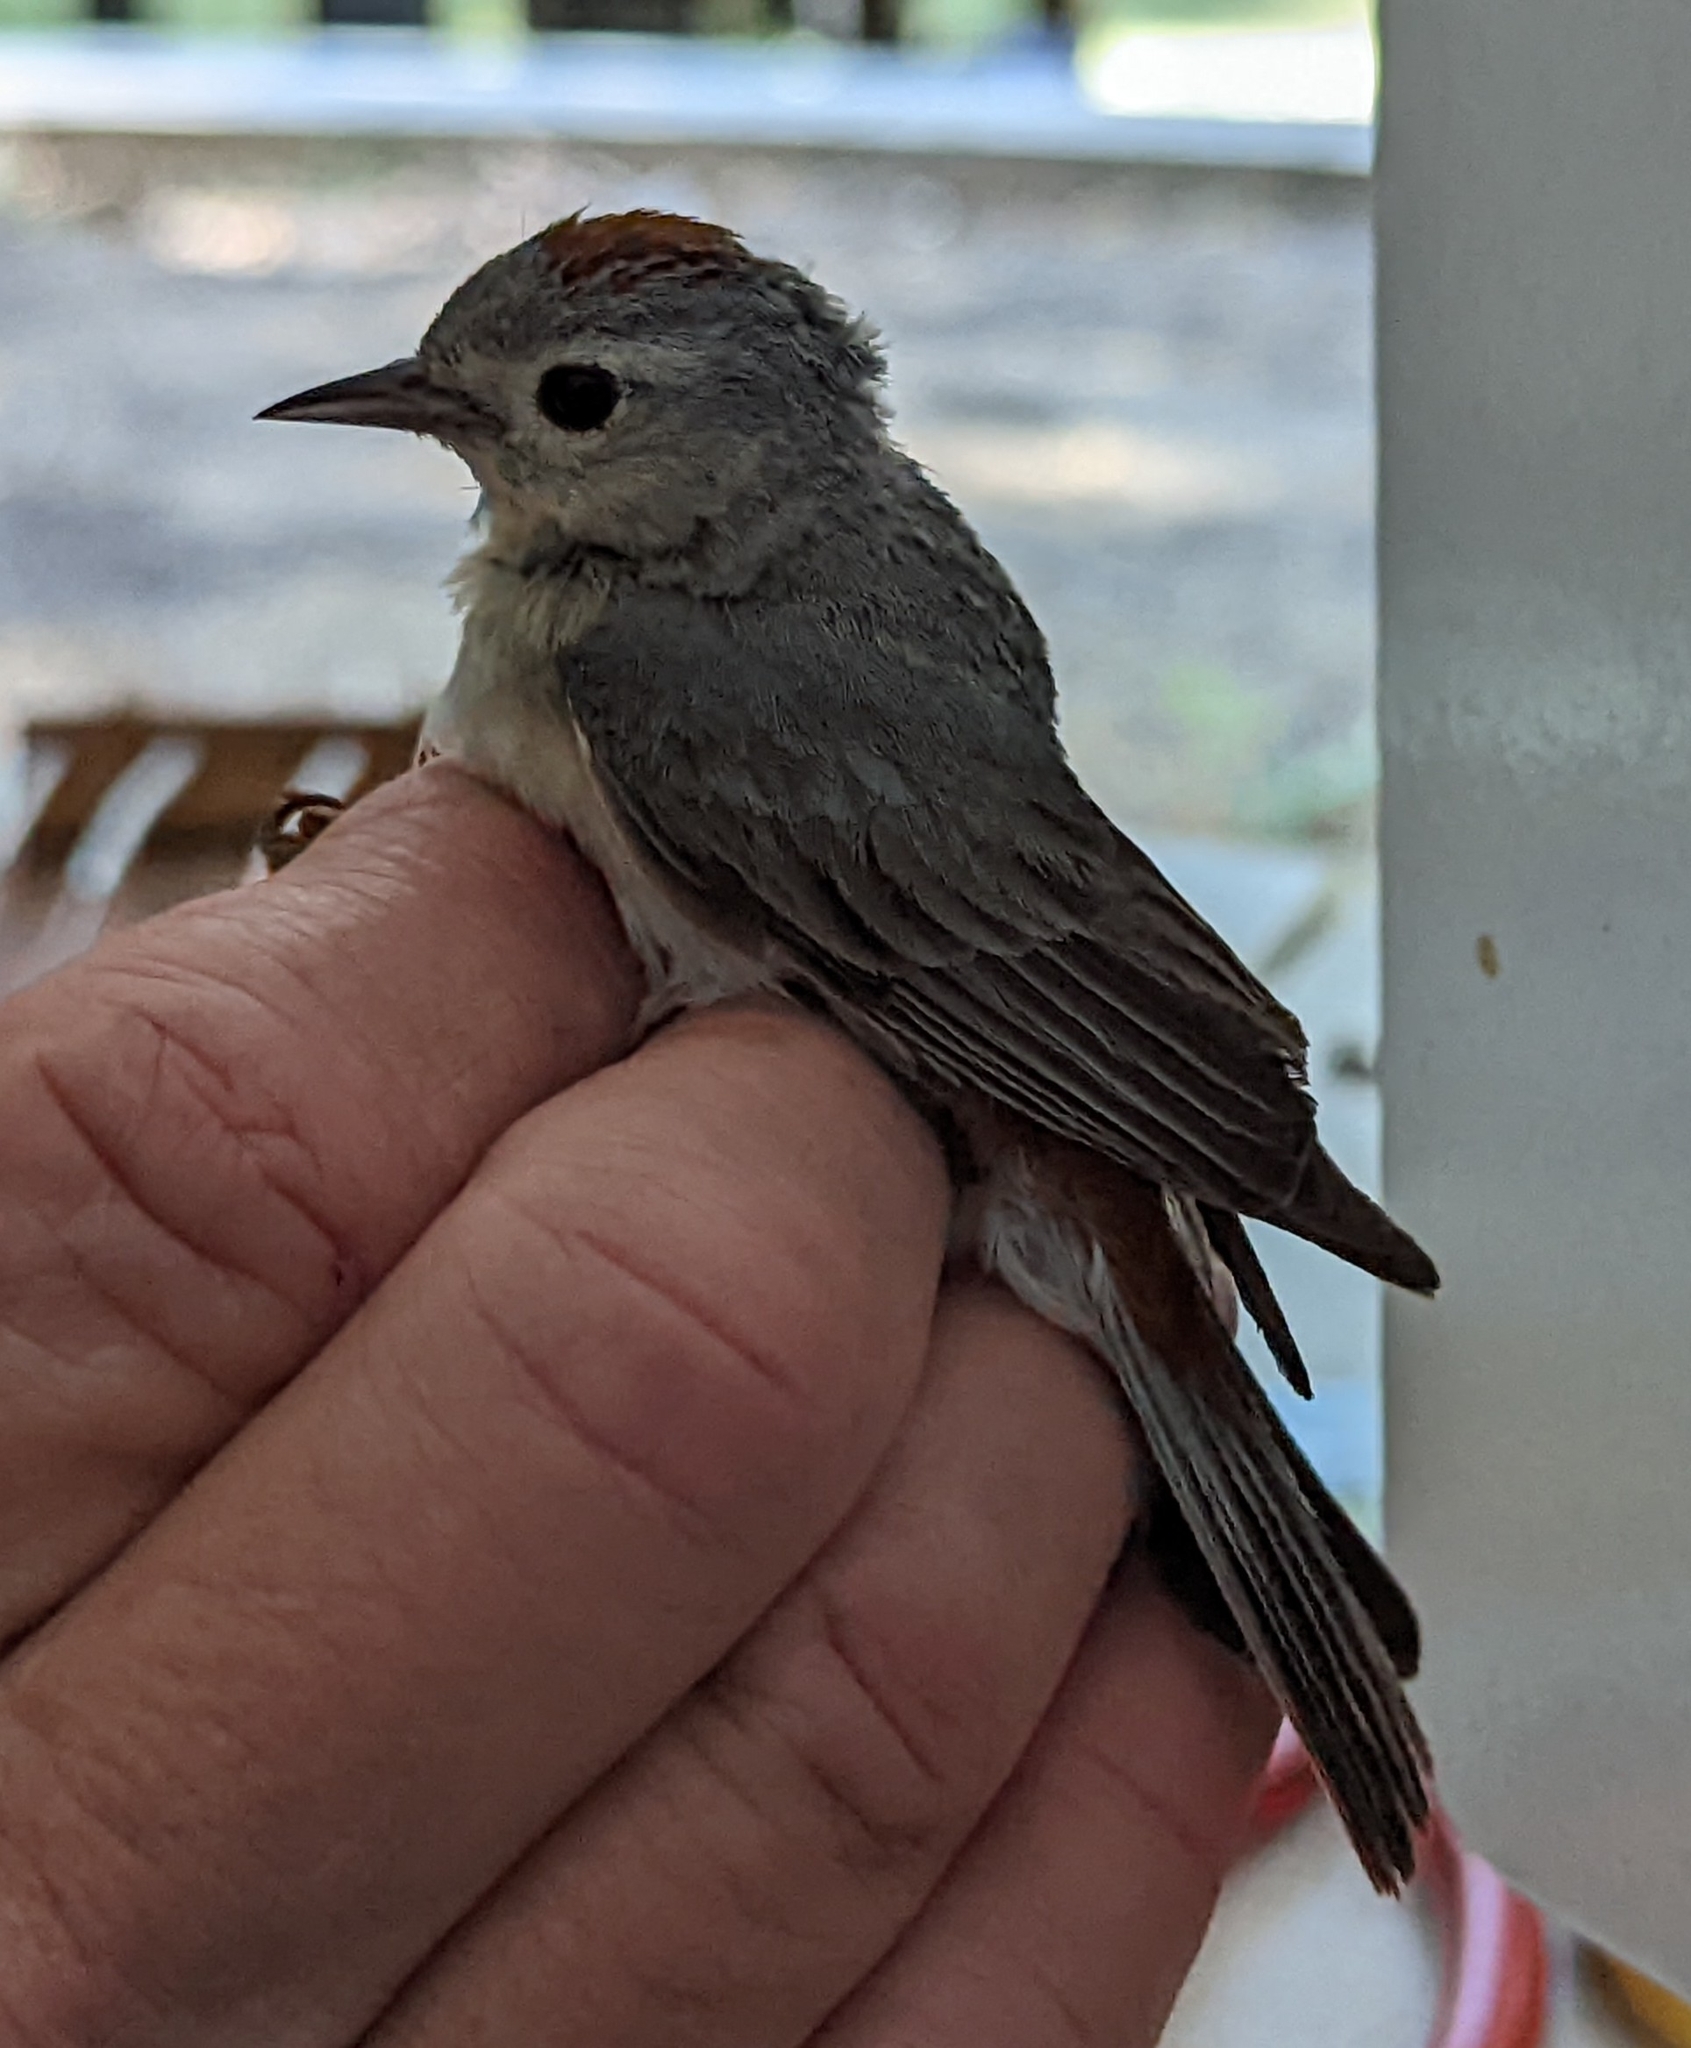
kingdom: Animalia
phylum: Chordata
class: Aves
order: Passeriformes
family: Parulidae
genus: Leiothlypis
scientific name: Leiothlypis luciae
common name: Lucy's warbler
